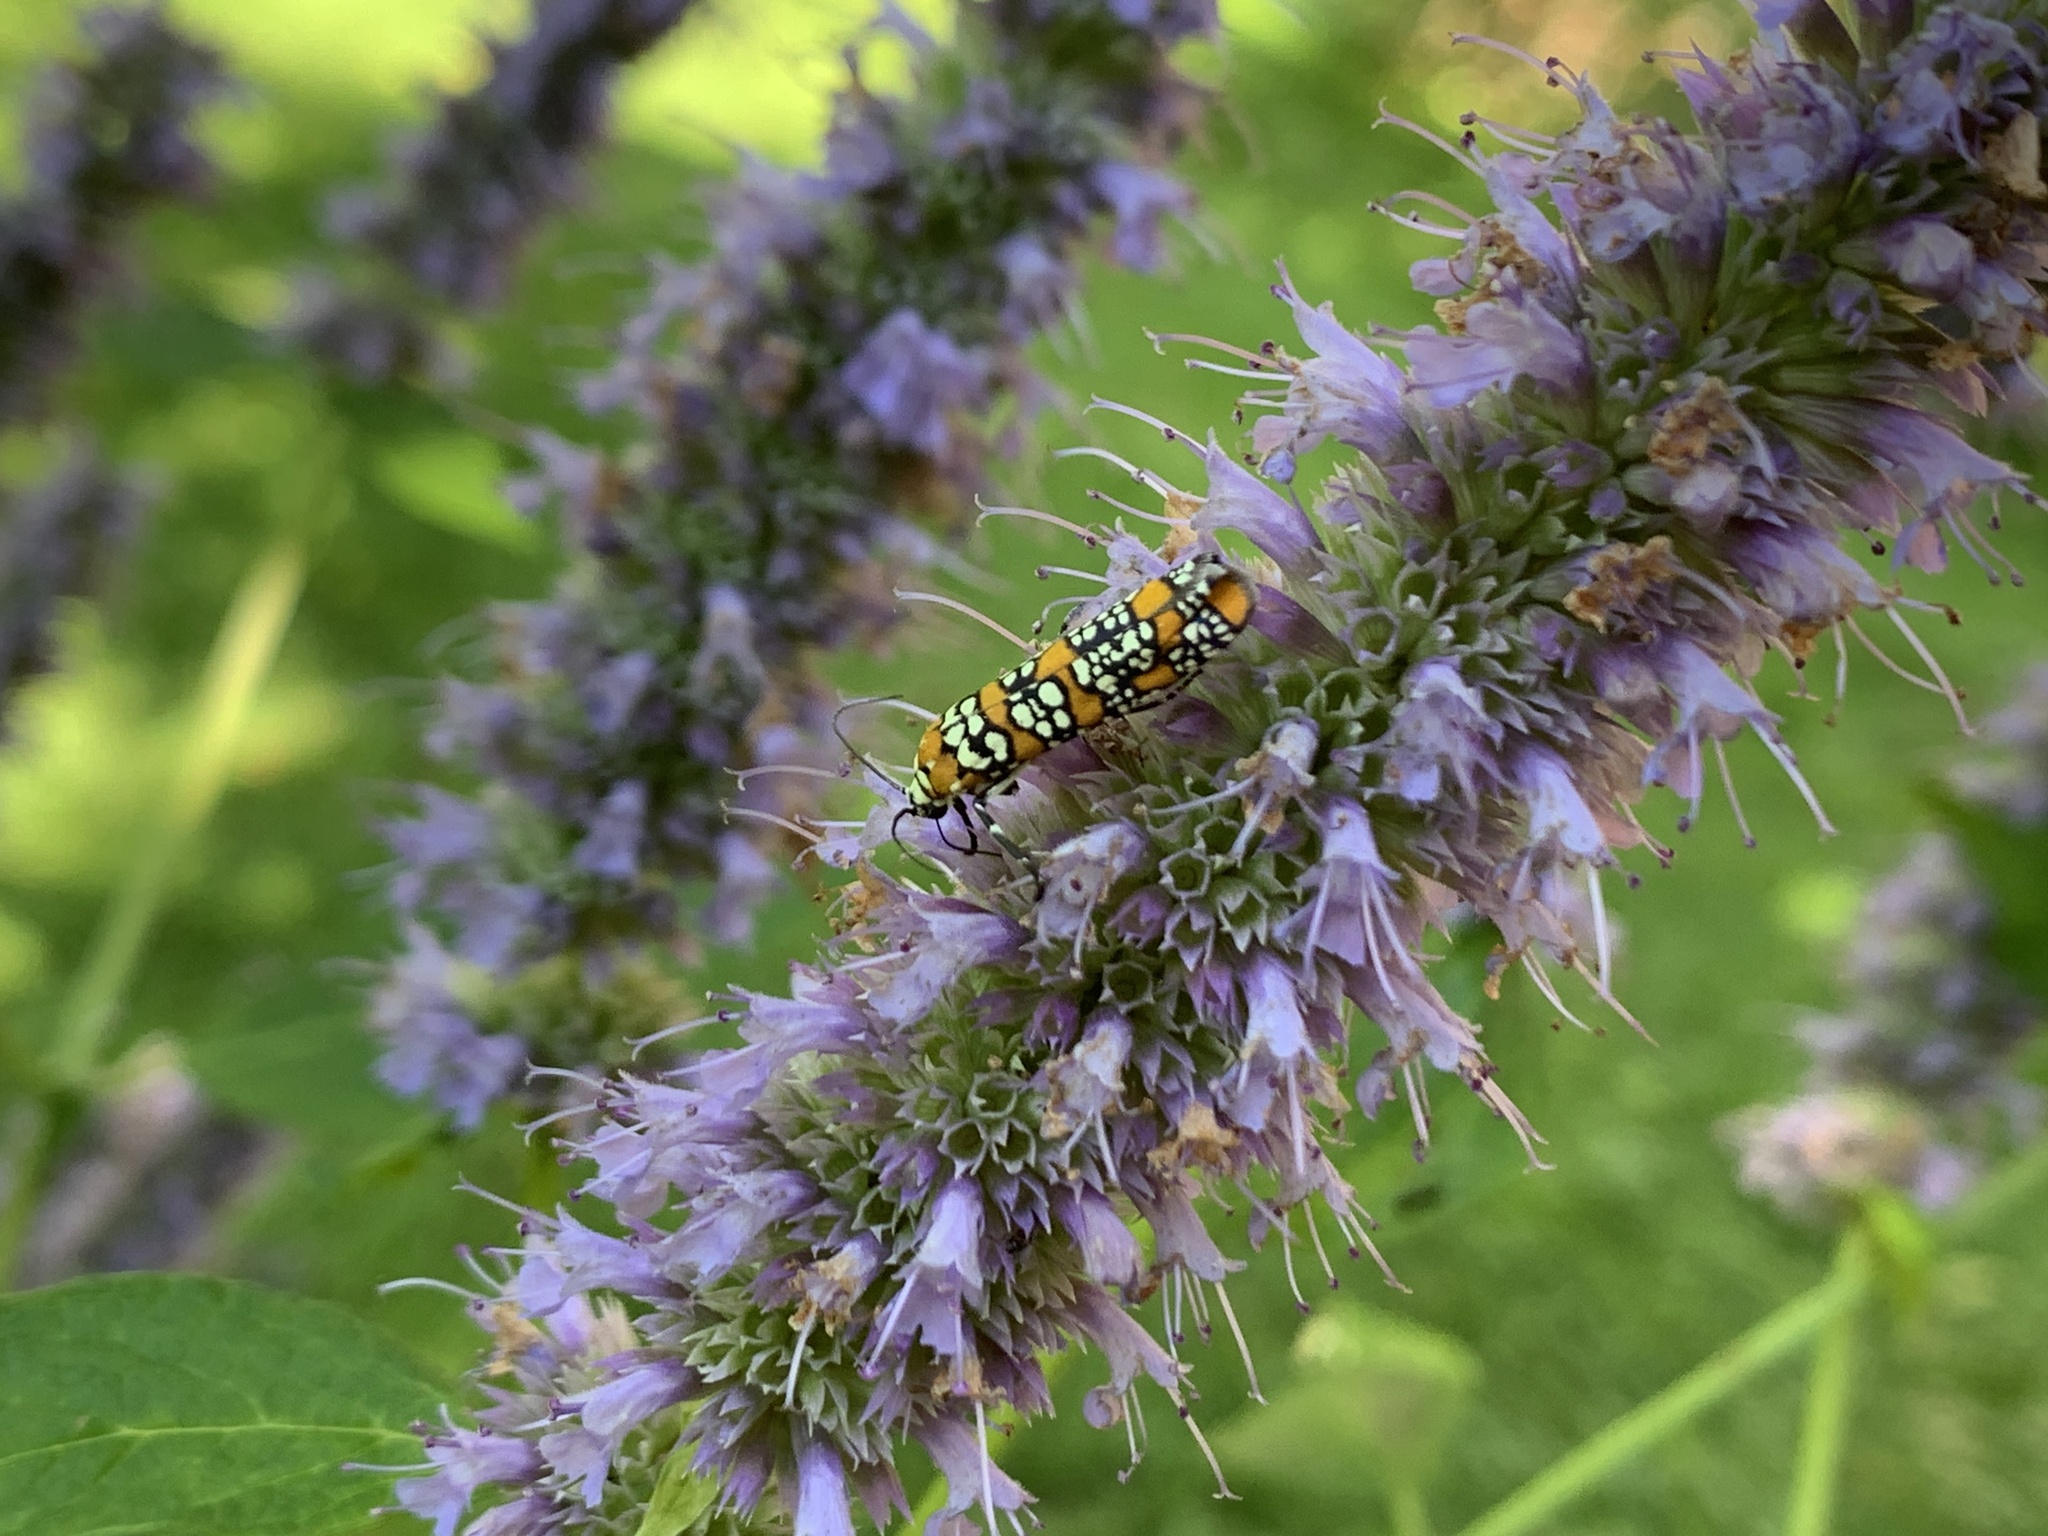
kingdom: Animalia
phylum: Arthropoda
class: Insecta
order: Lepidoptera
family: Attevidae
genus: Atteva
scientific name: Atteva punctella
